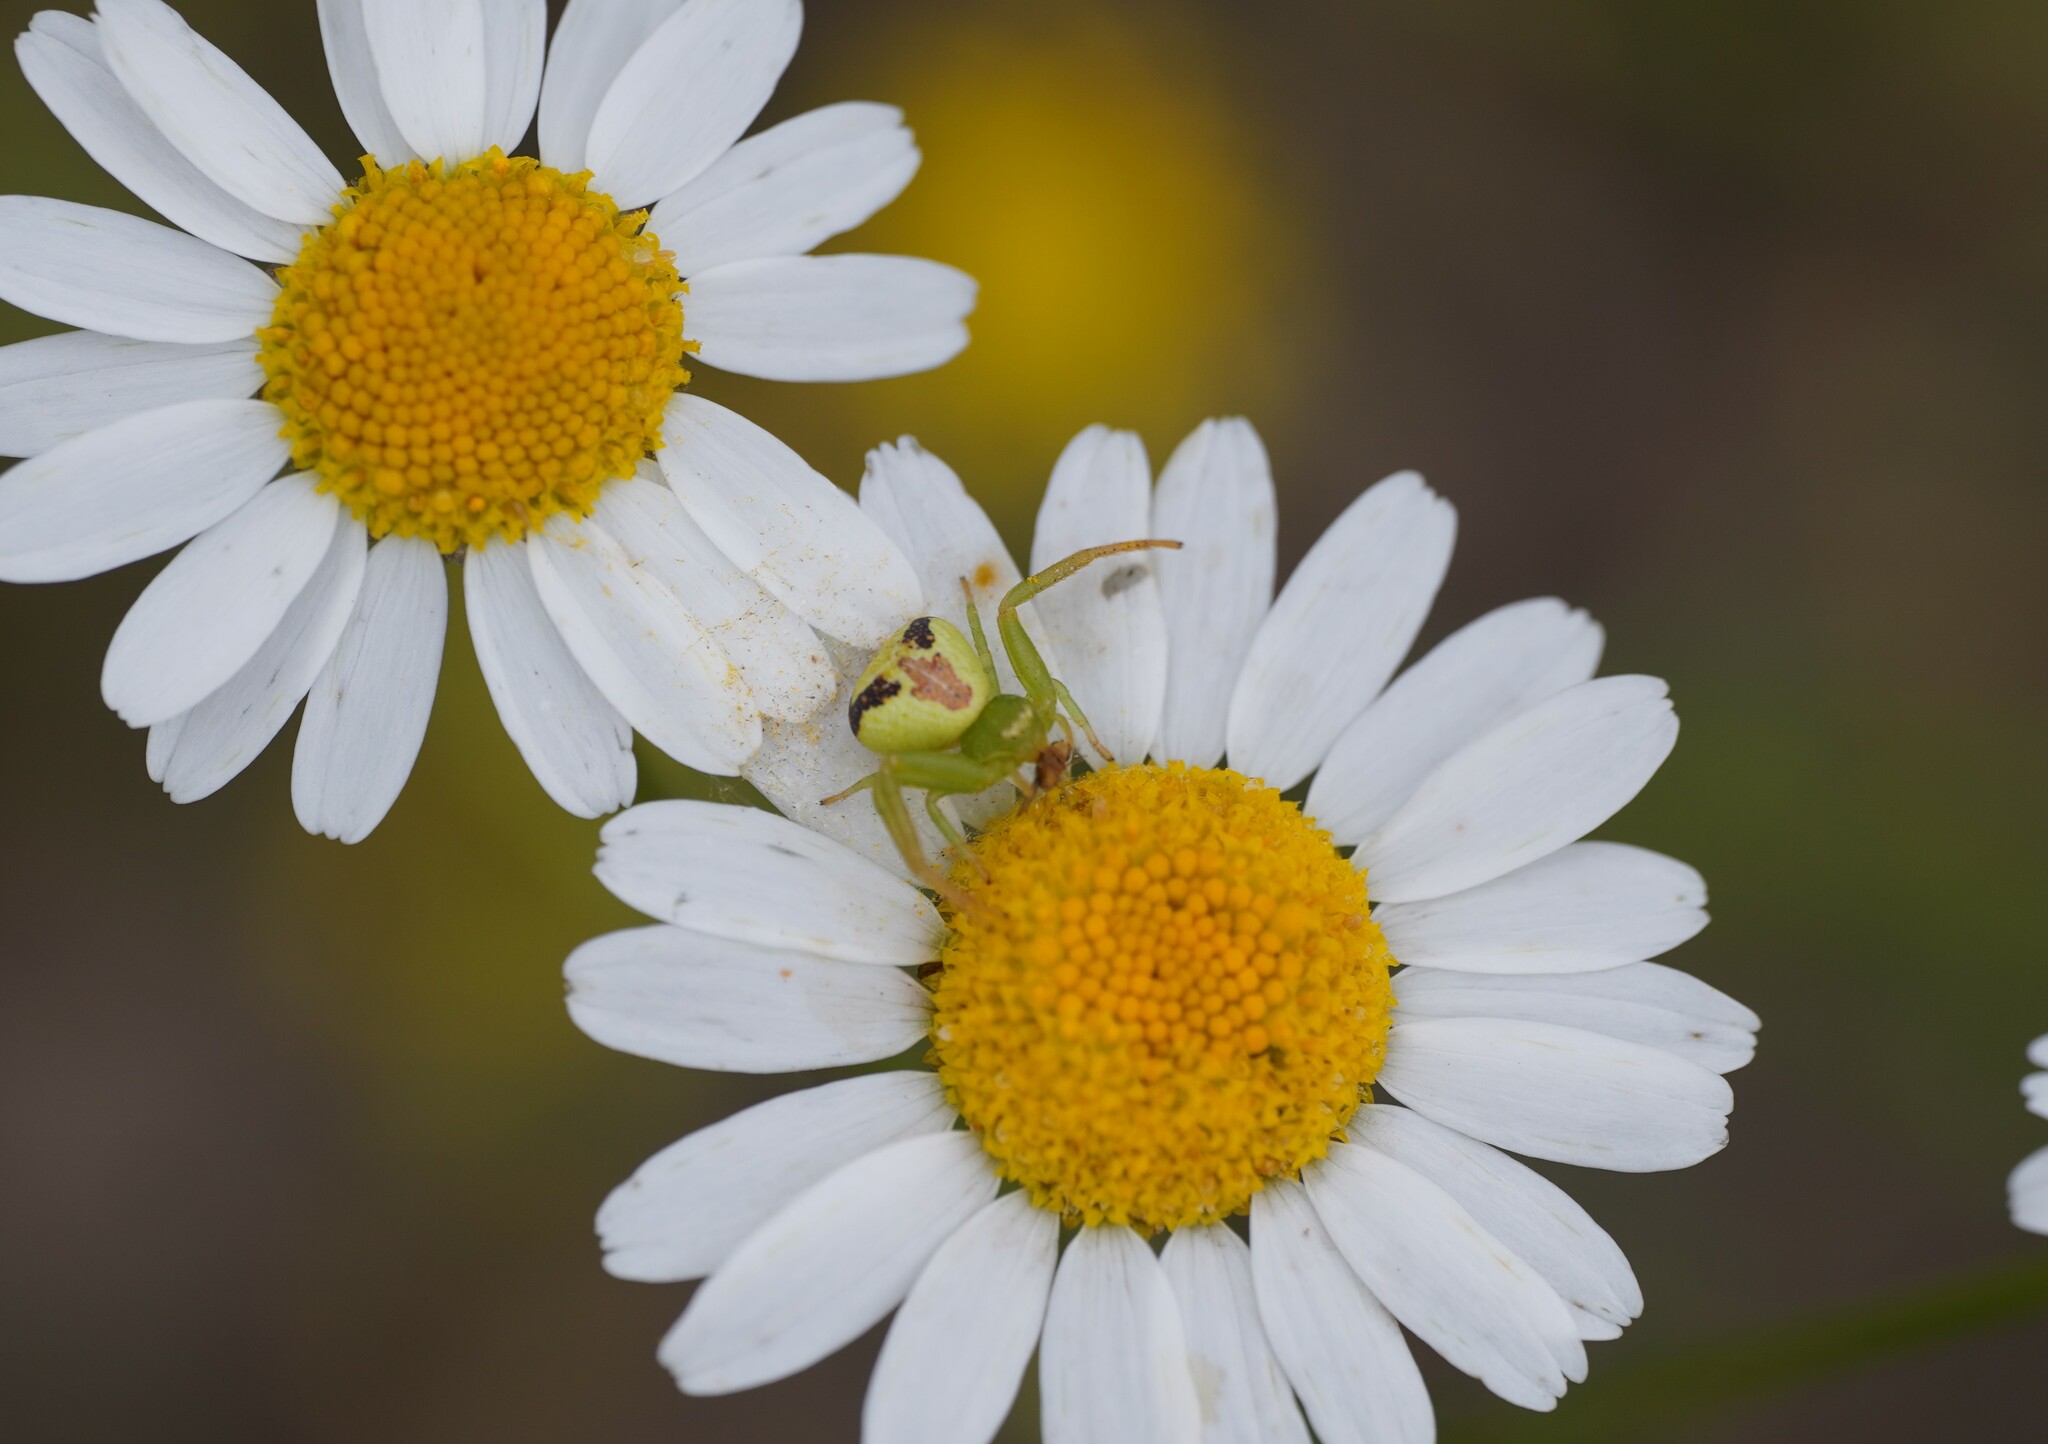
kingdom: Animalia
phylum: Arthropoda
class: Arachnida
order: Araneae
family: Thomisidae
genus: Ebrechtella
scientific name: Ebrechtella tricuspidata
